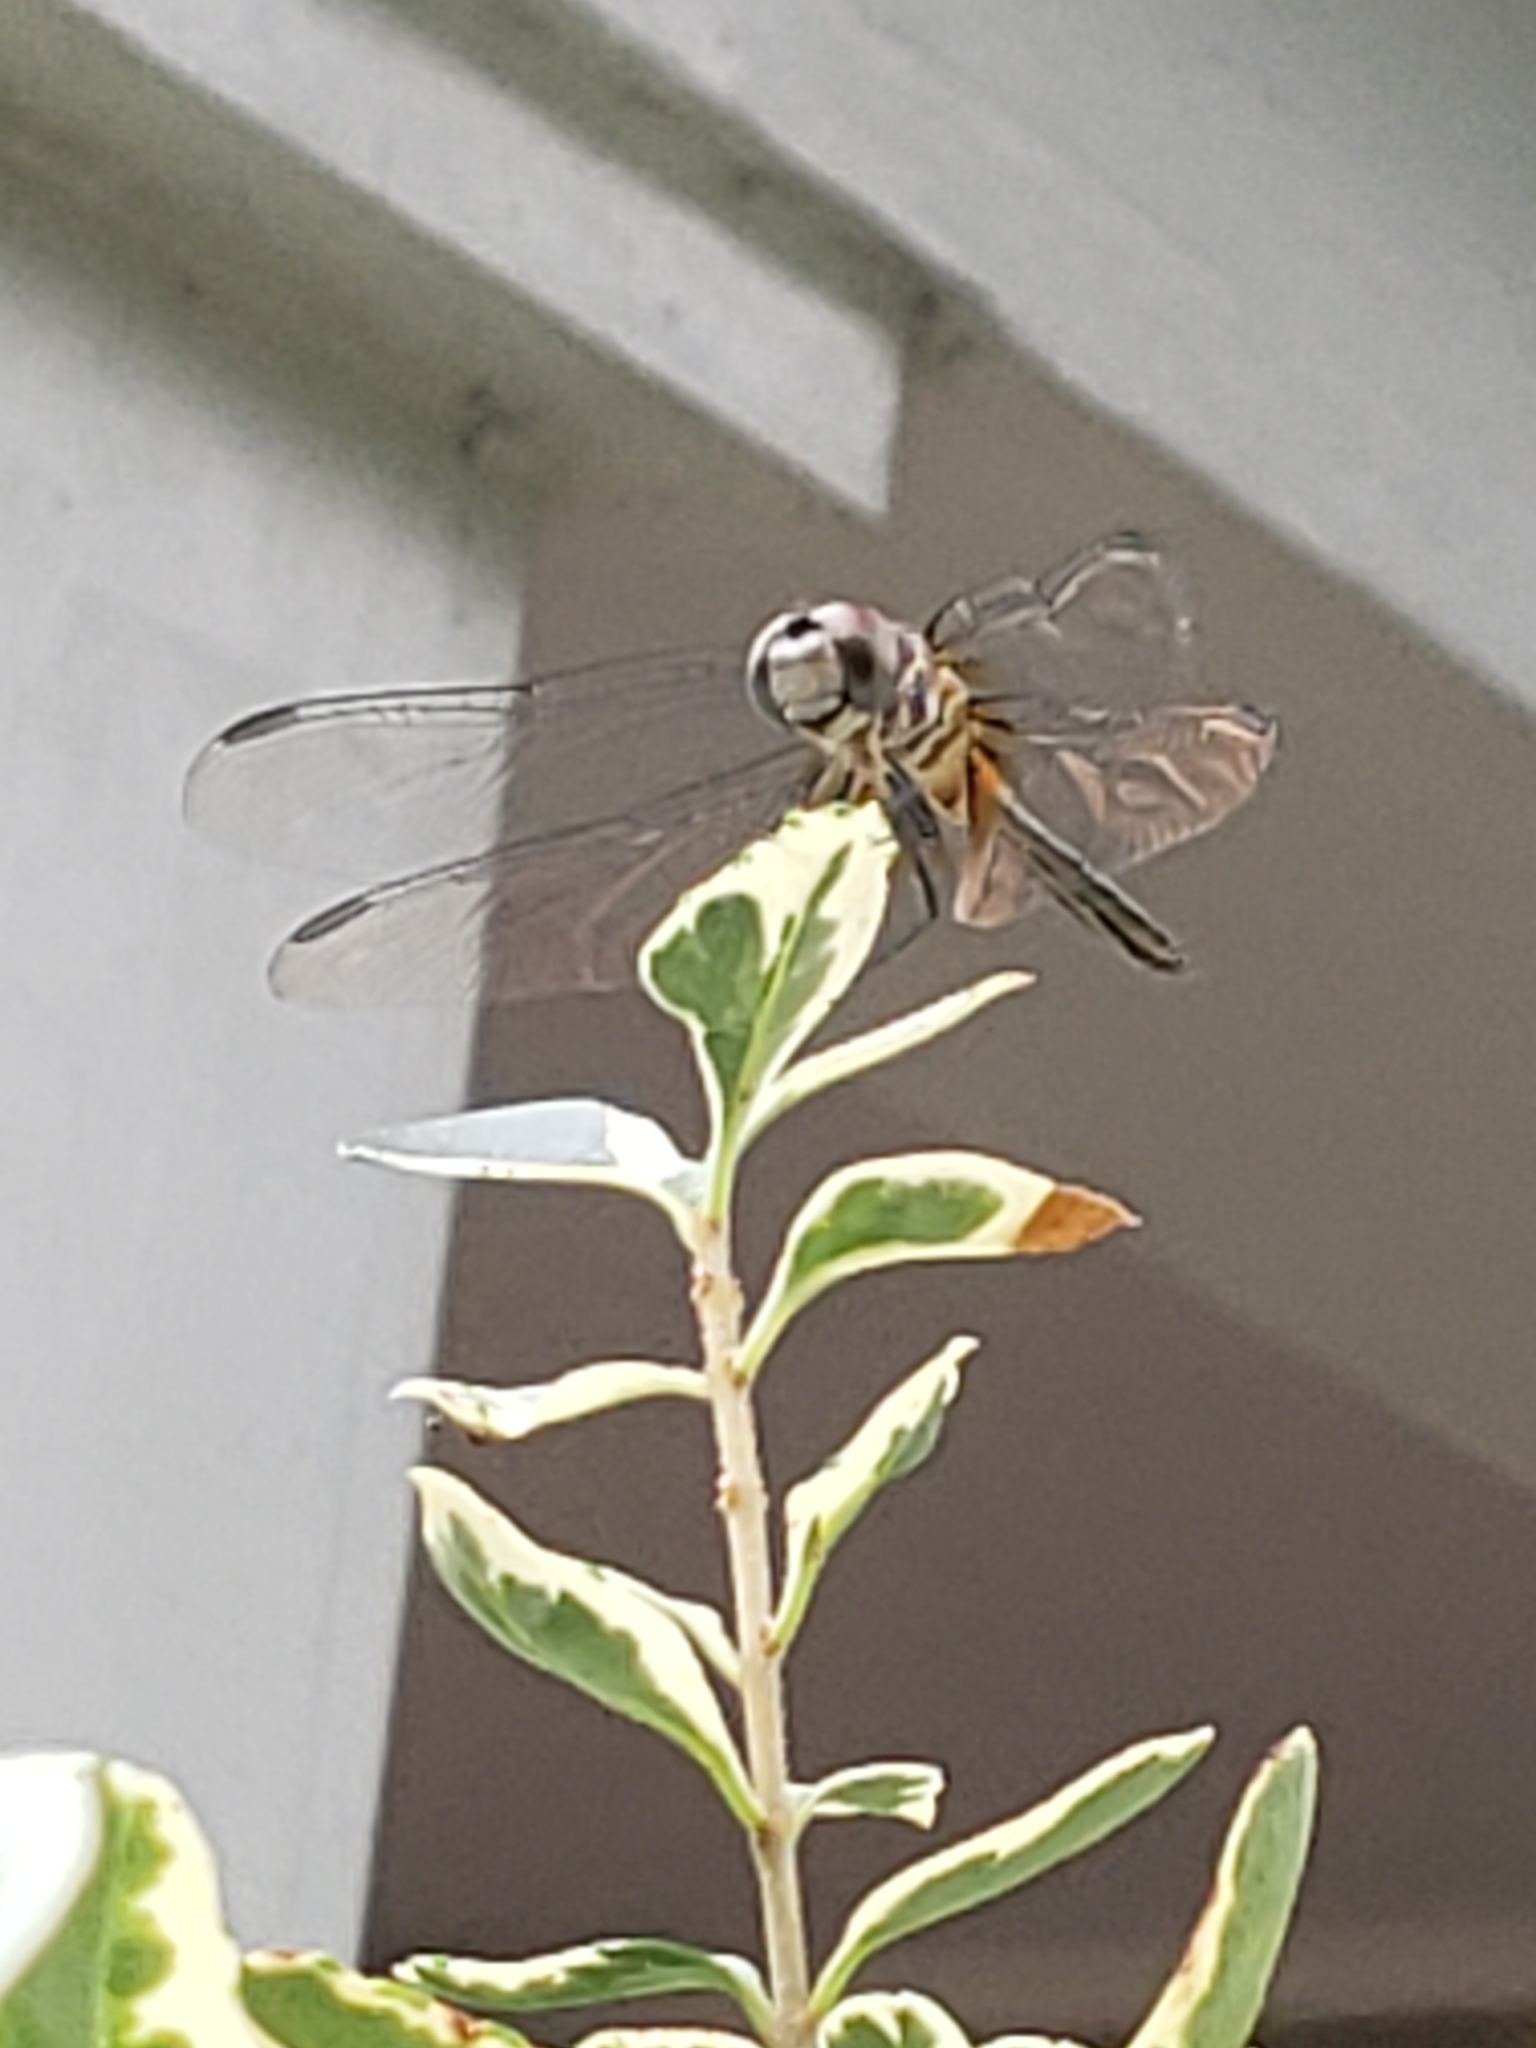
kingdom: Animalia
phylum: Arthropoda
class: Insecta
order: Odonata
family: Libellulidae
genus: Pachydiplax
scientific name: Pachydiplax longipennis
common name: Blue dasher
